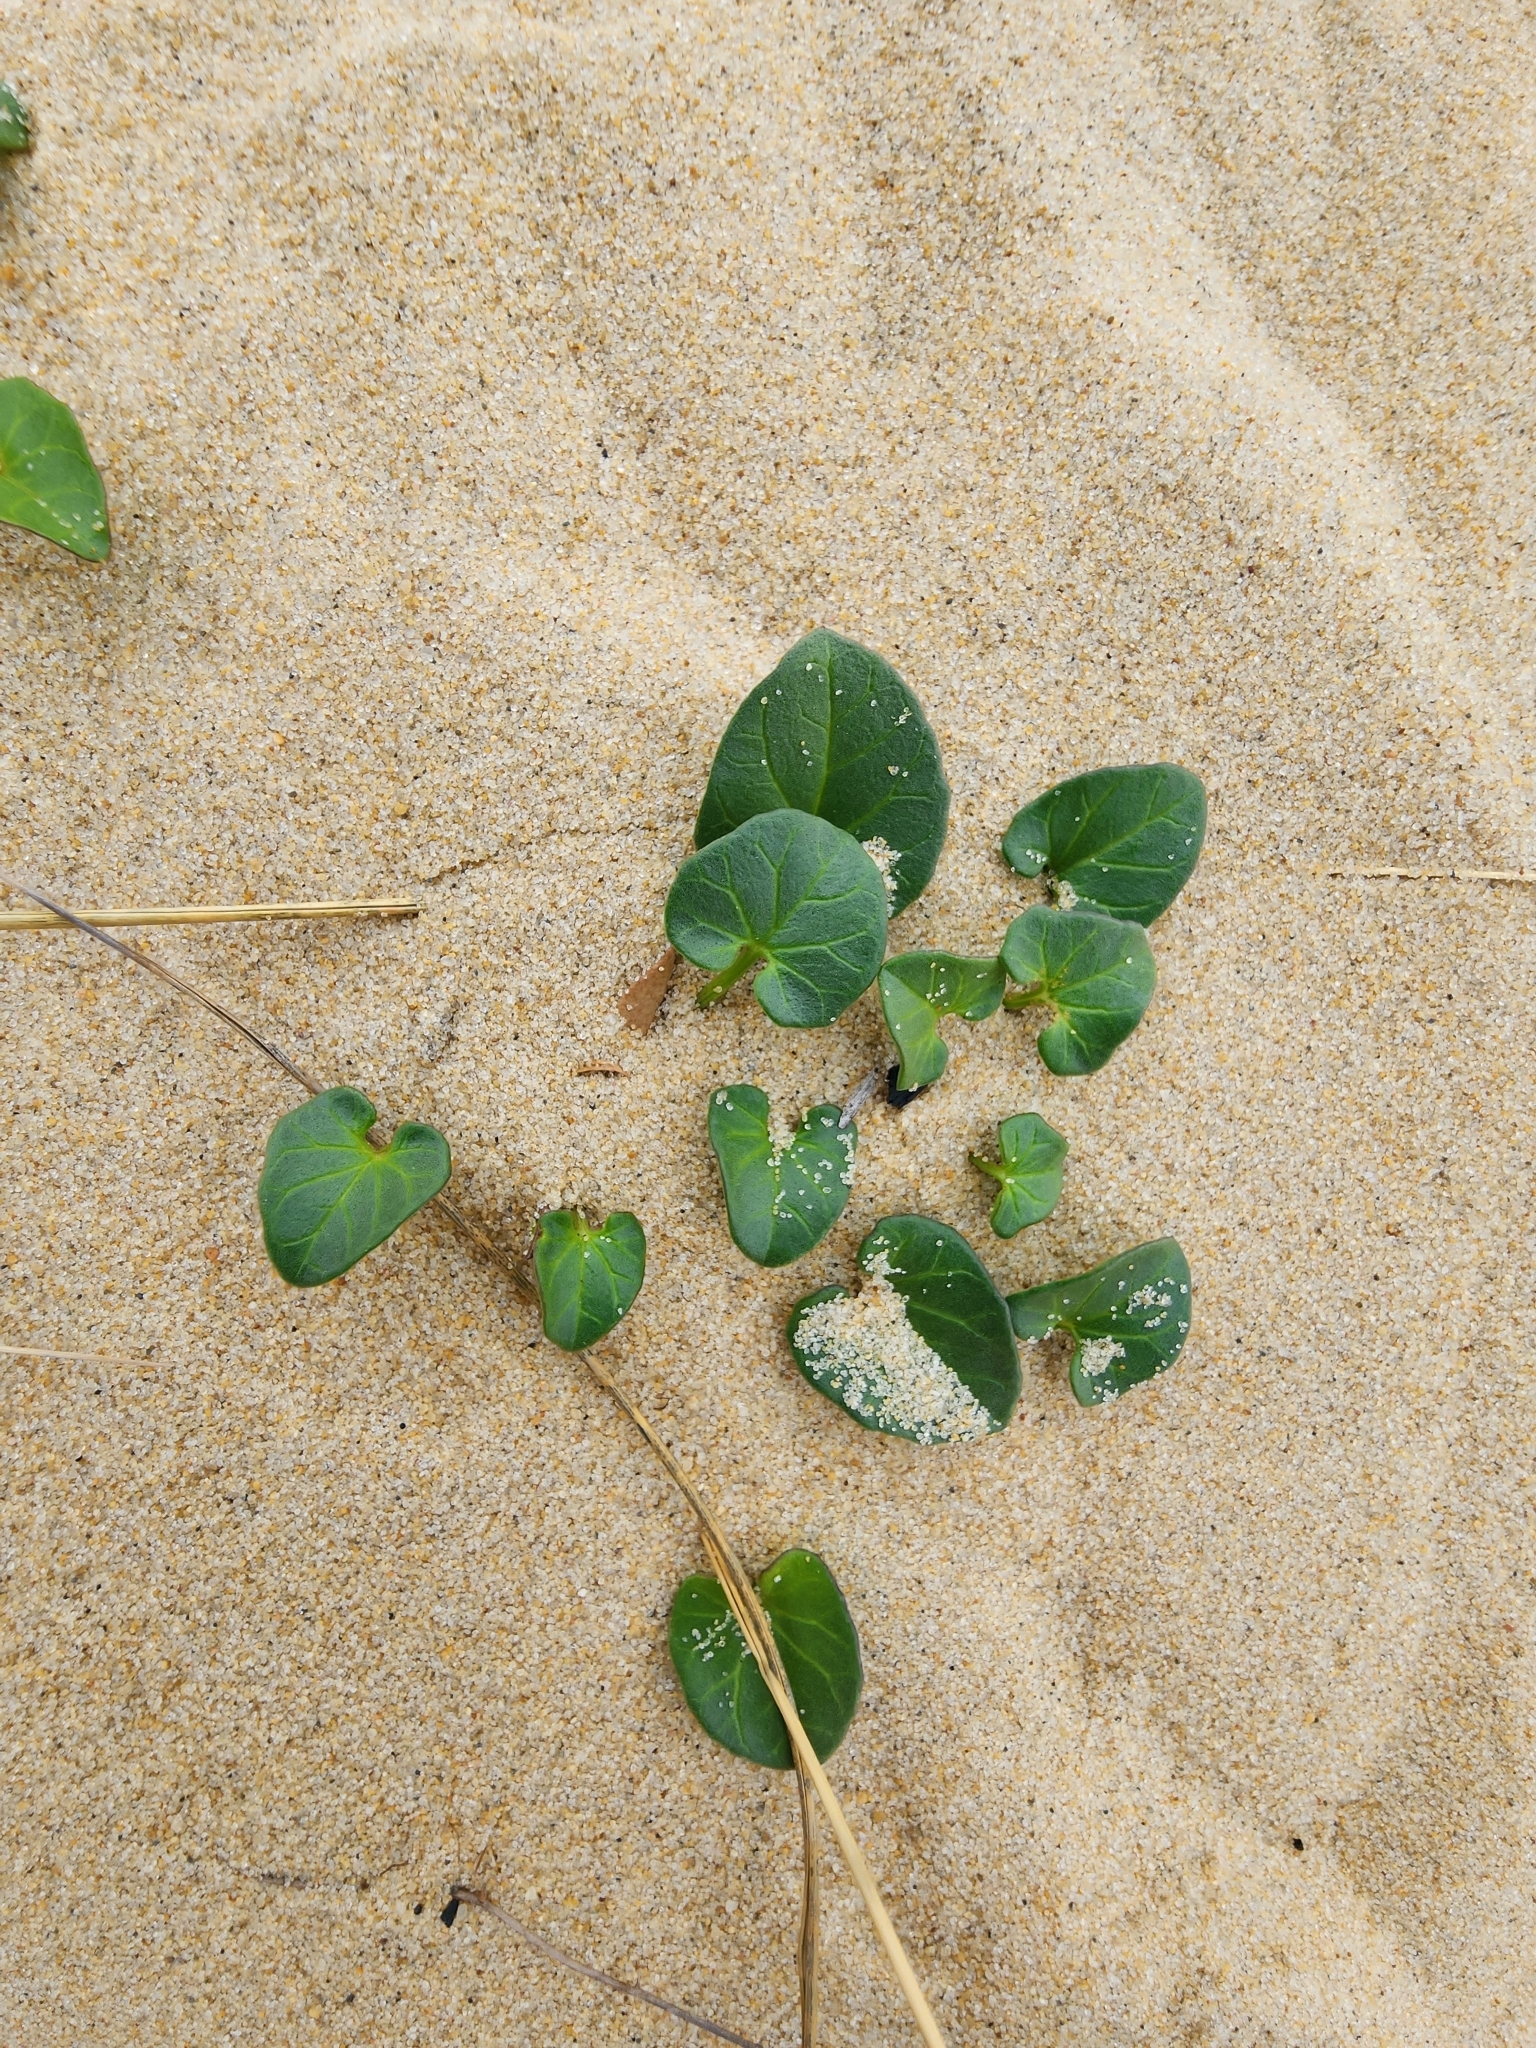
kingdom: Plantae
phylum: Tracheophyta
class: Magnoliopsida
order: Solanales
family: Convolvulaceae
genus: Calystegia
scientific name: Calystegia soldanella
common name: Sea bindweed
